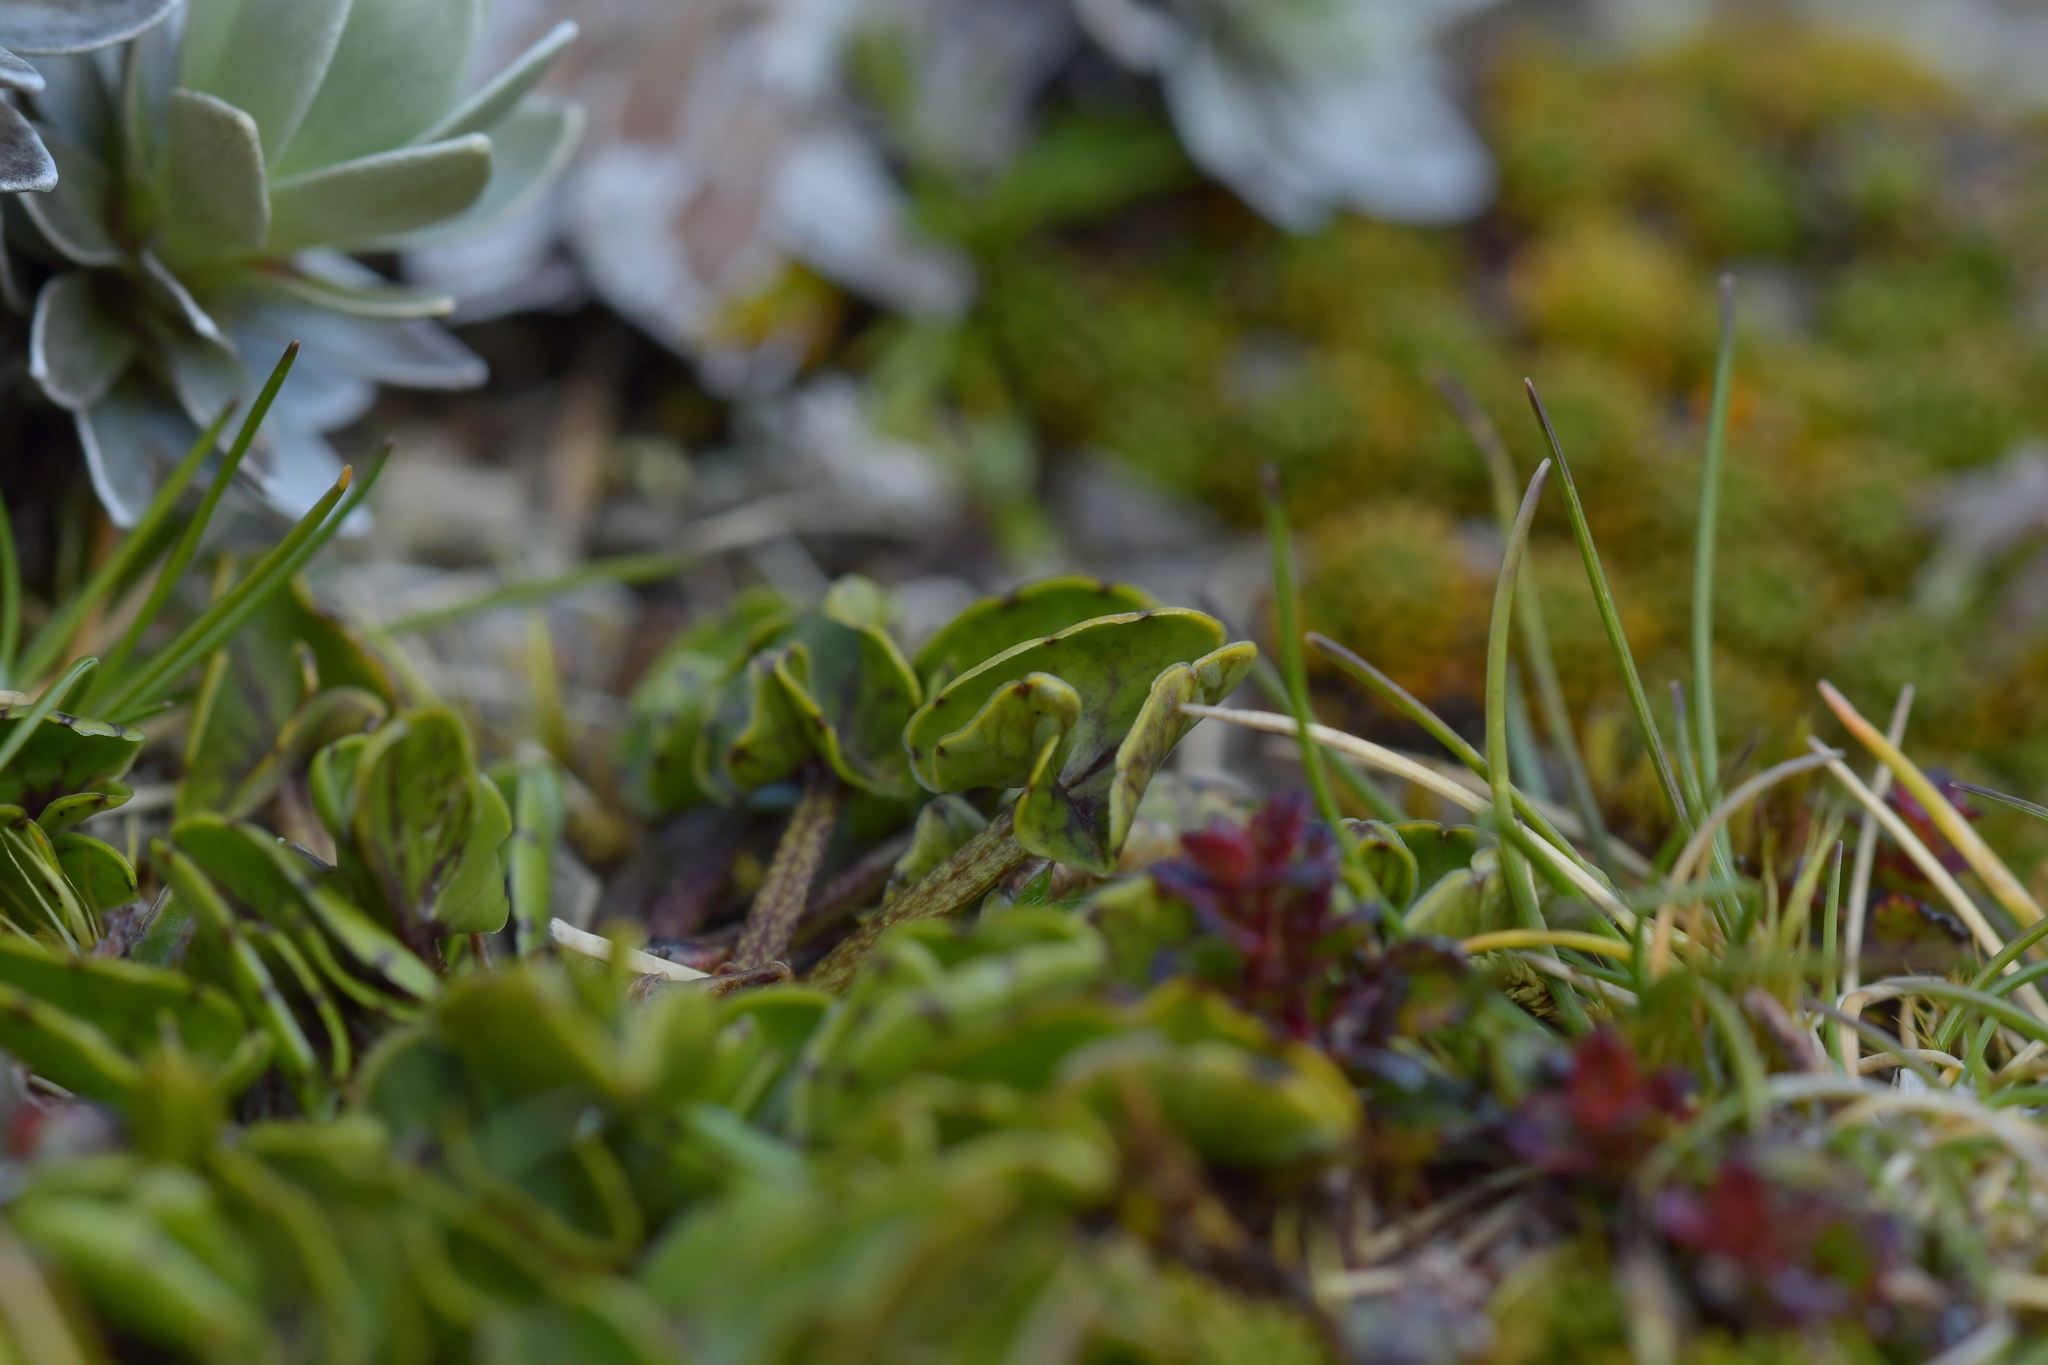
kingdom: Plantae
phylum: Tracheophyta
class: Magnoliopsida
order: Ranunculales
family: Ranunculaceae
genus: Caltha
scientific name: Caltha novae-zelandiae
